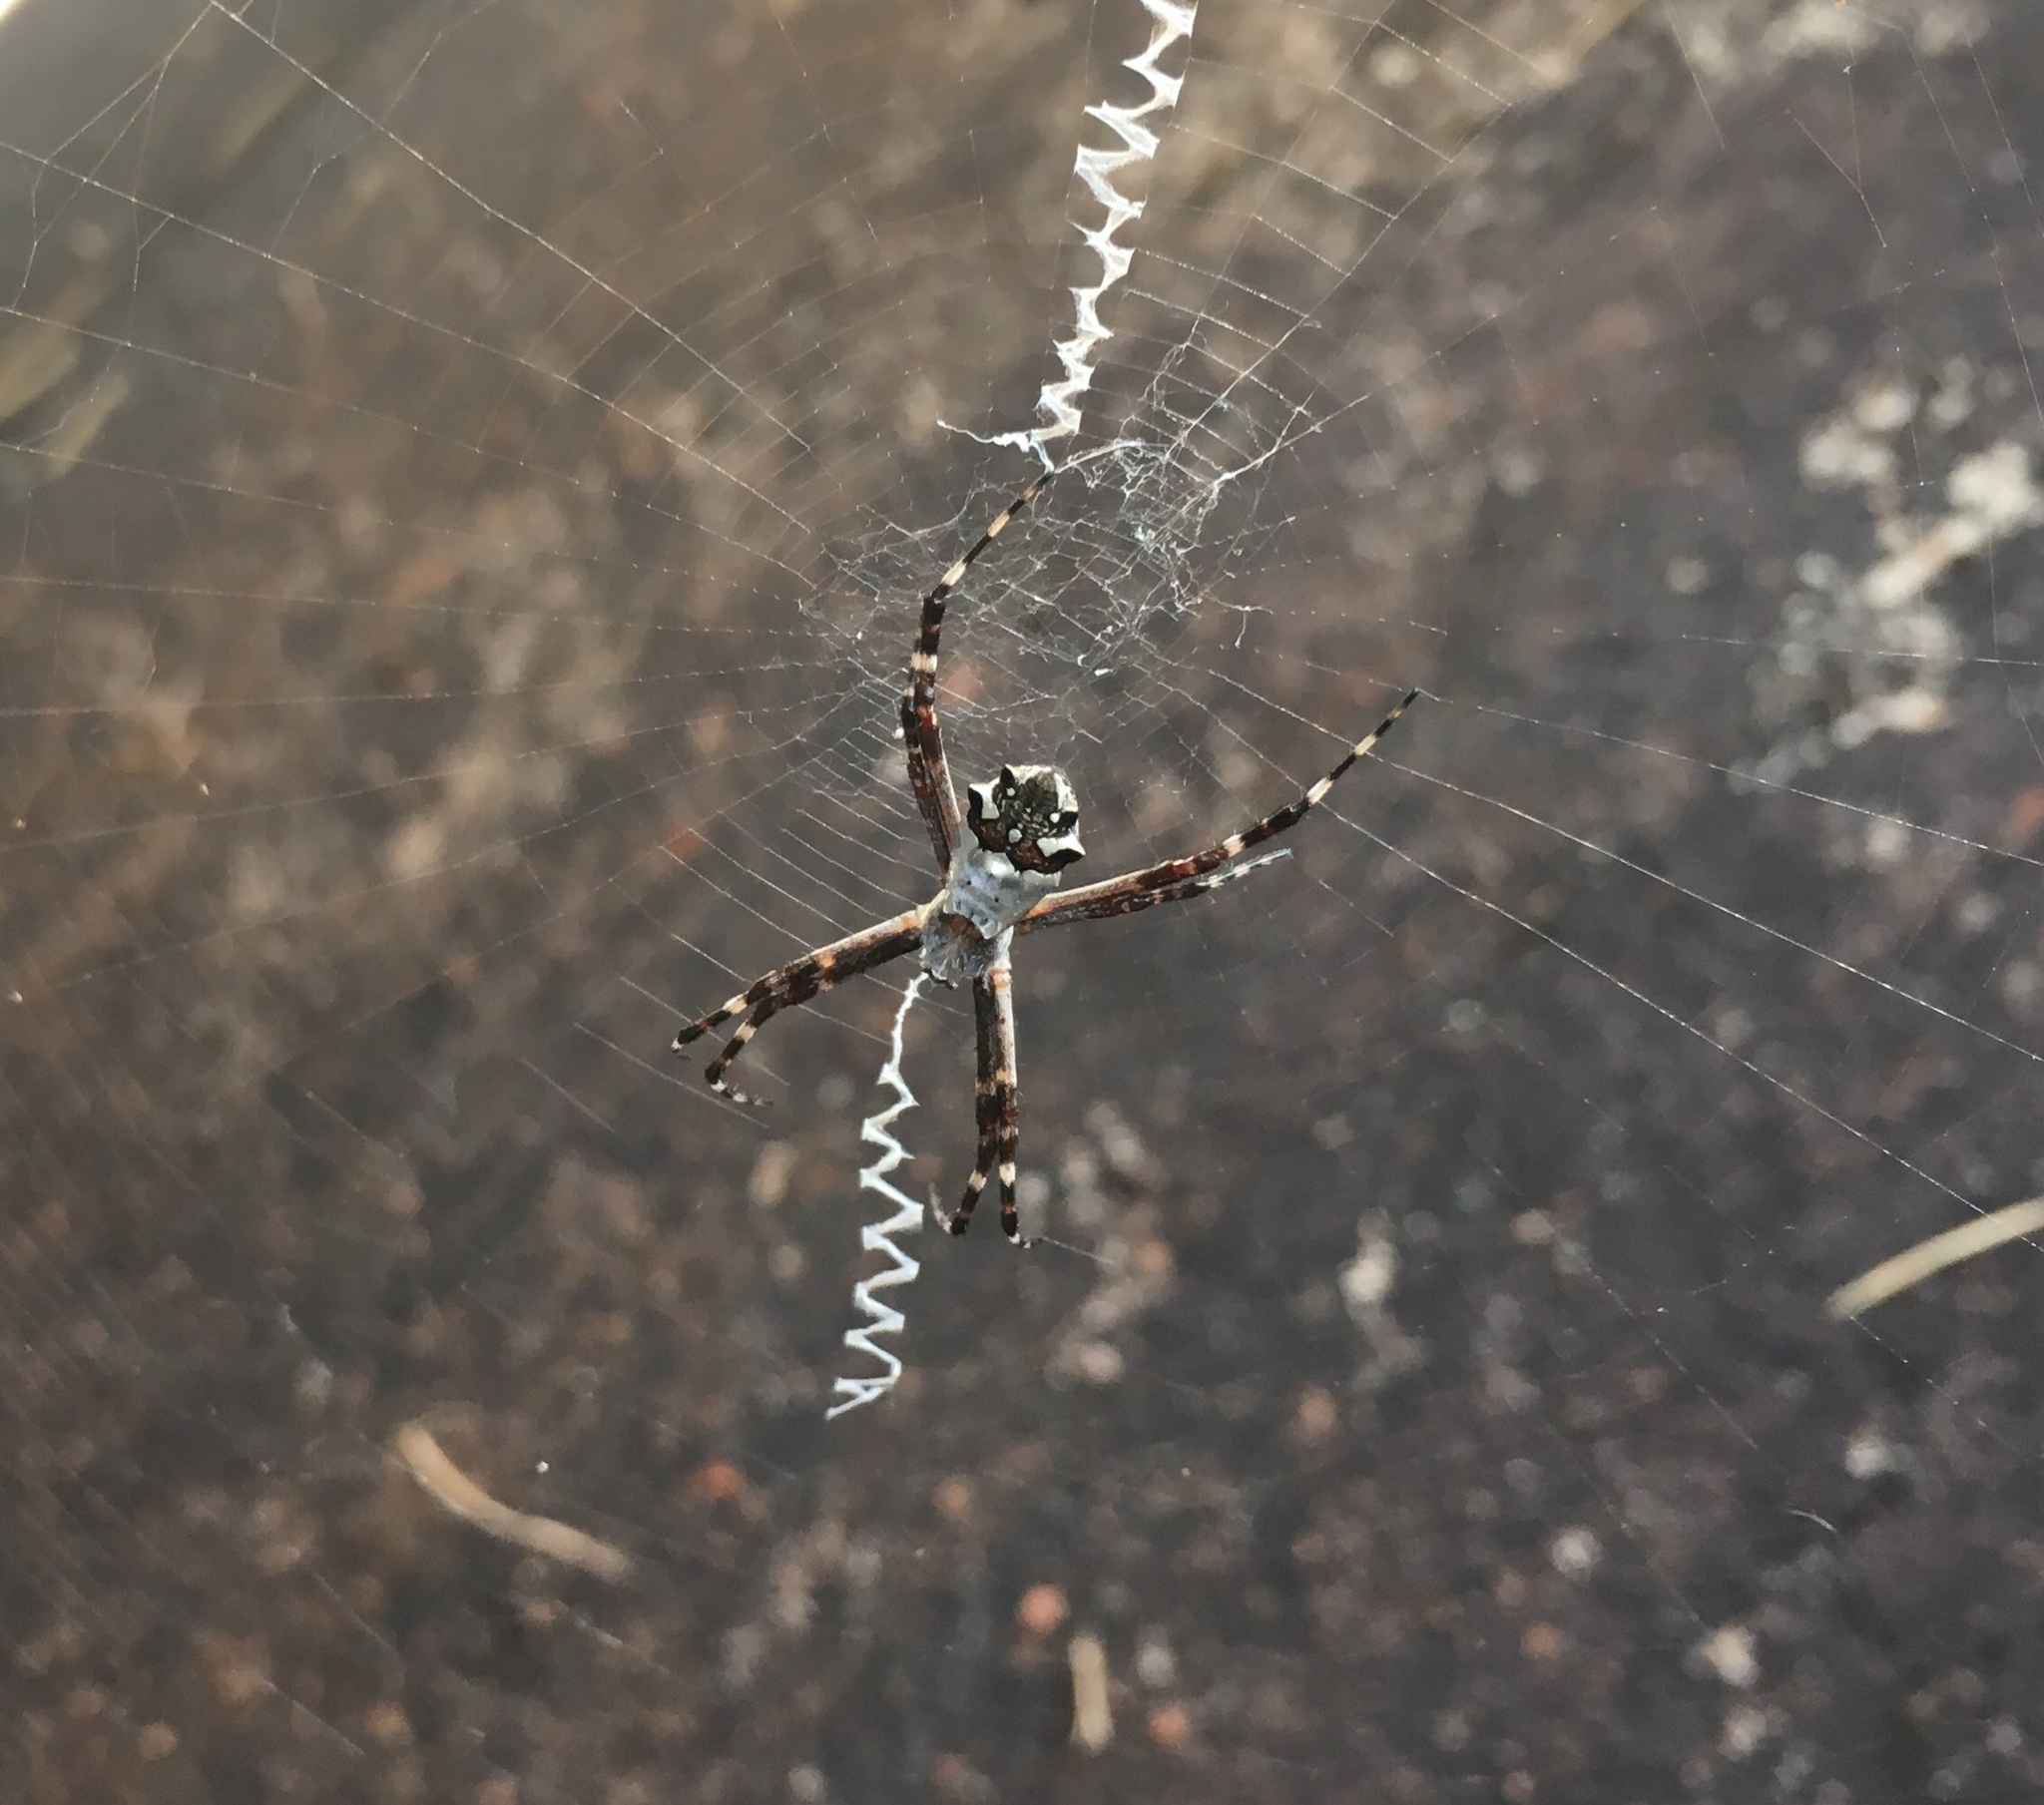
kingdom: Animalia
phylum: Arthropoda
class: Arachnida
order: Araneae
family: Araneidae
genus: Argiope
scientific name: Argiope argentata
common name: Orb weavers
